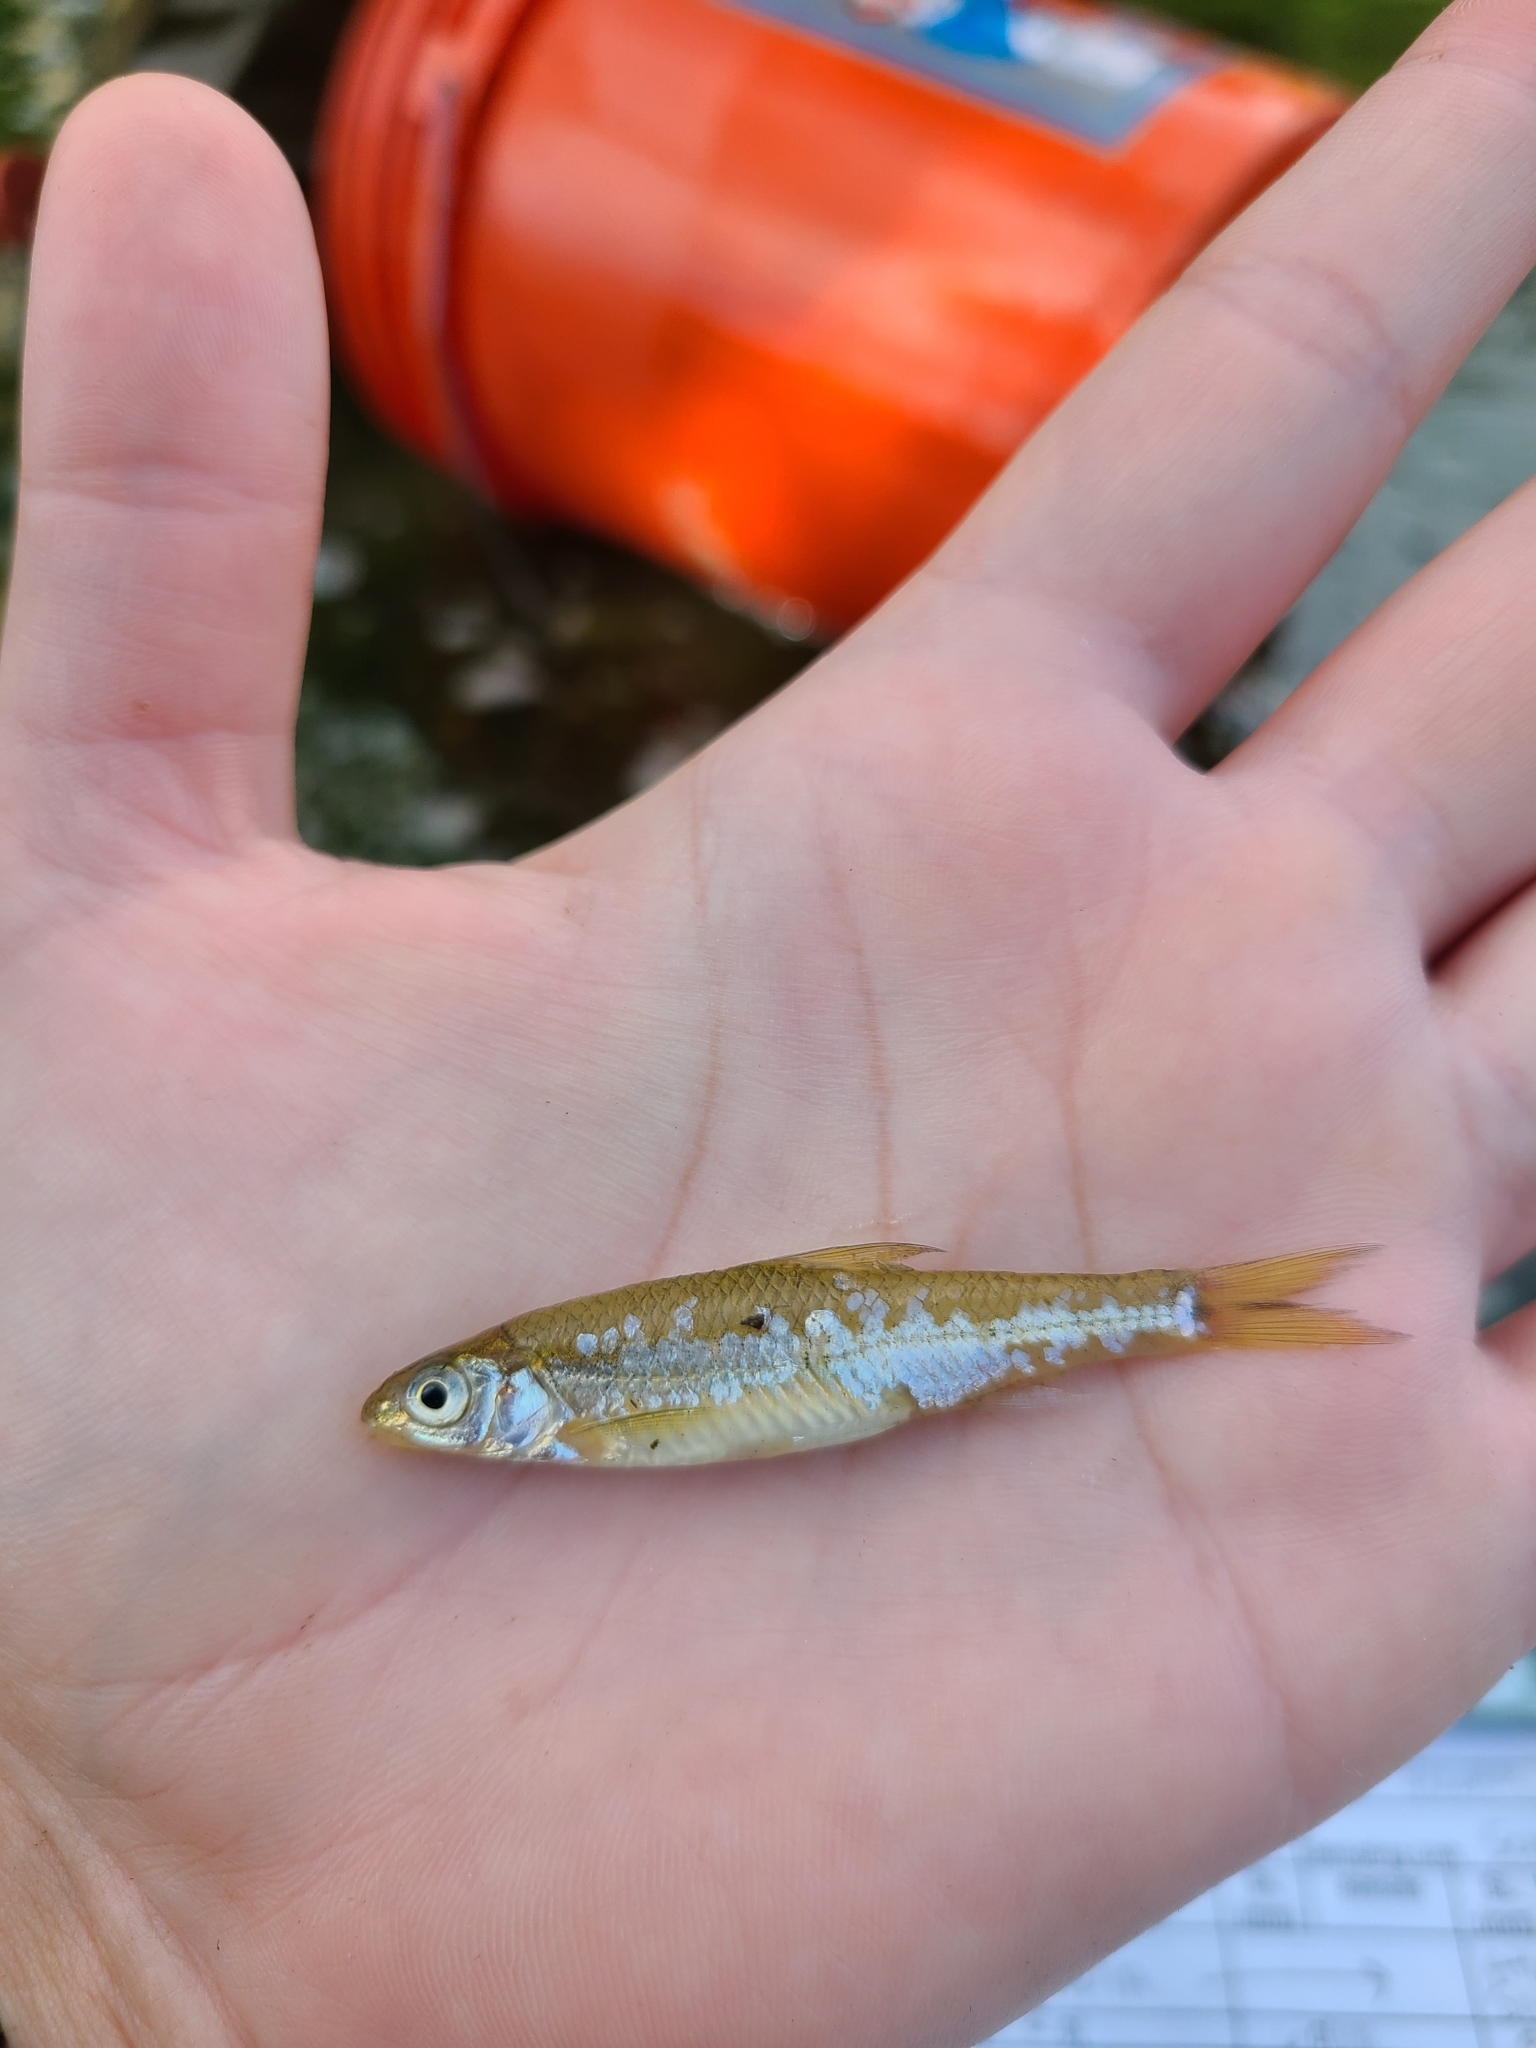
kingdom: Animalia
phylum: Chordata
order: Cypriniformes
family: Cyprinidae
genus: Notropis
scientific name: Notropis
